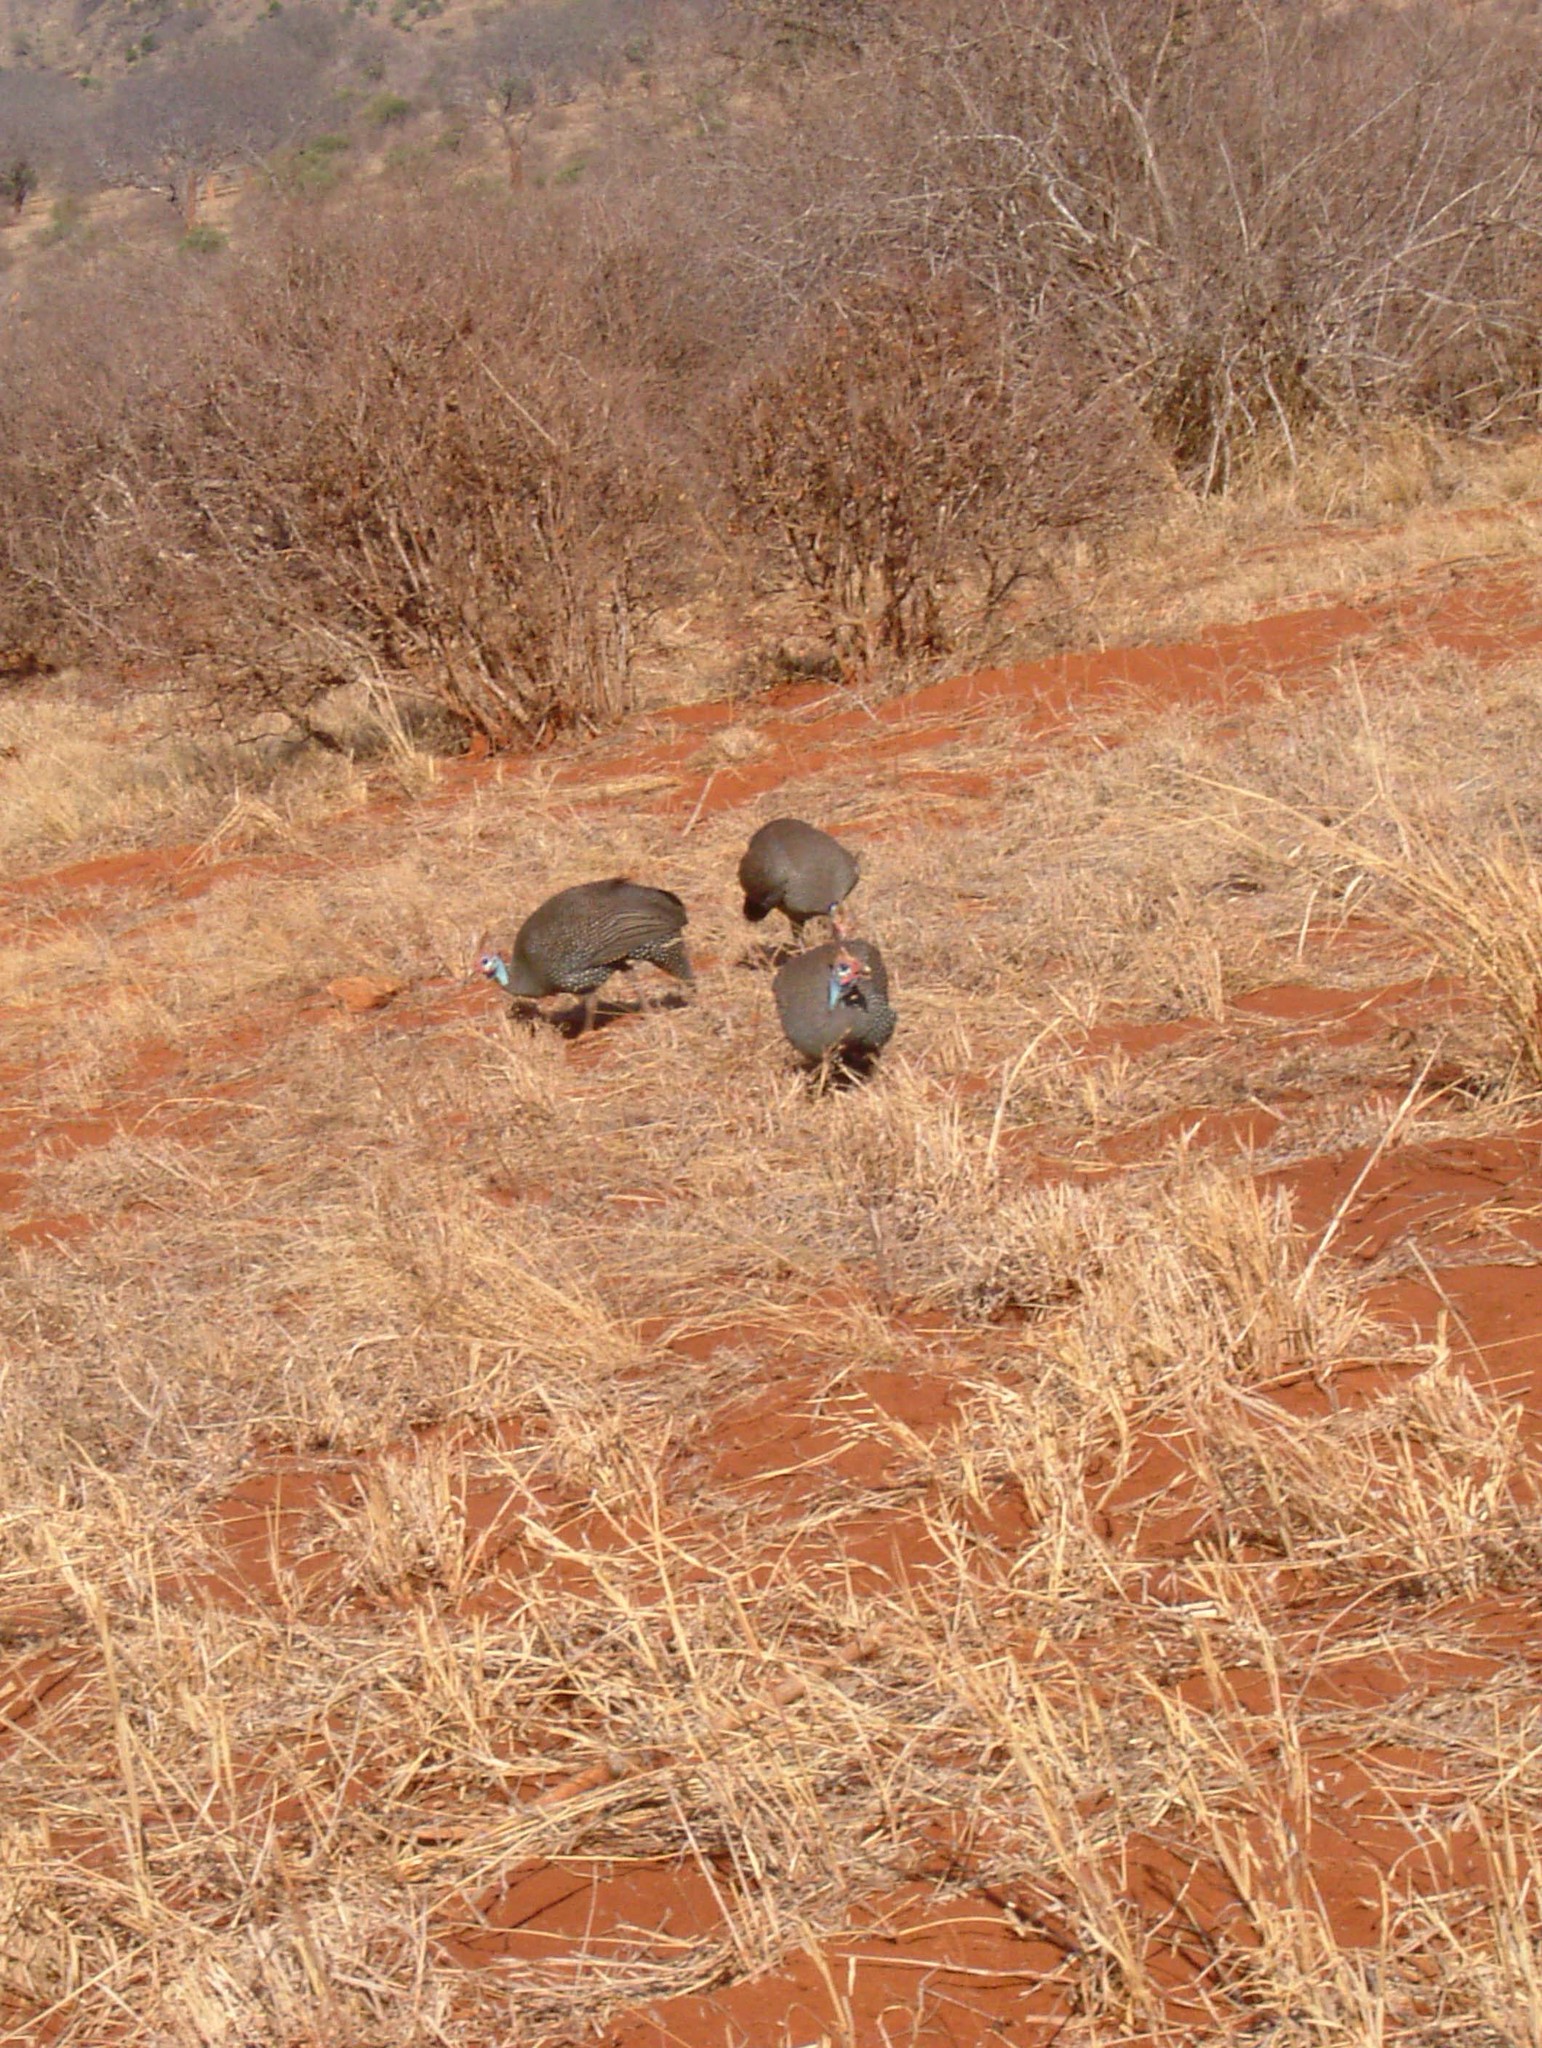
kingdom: Animalia
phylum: Chordata
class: Aves
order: Galliformes
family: Numididae
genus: Numida
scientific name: Numida meleagris
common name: Helmeted guineafowl
